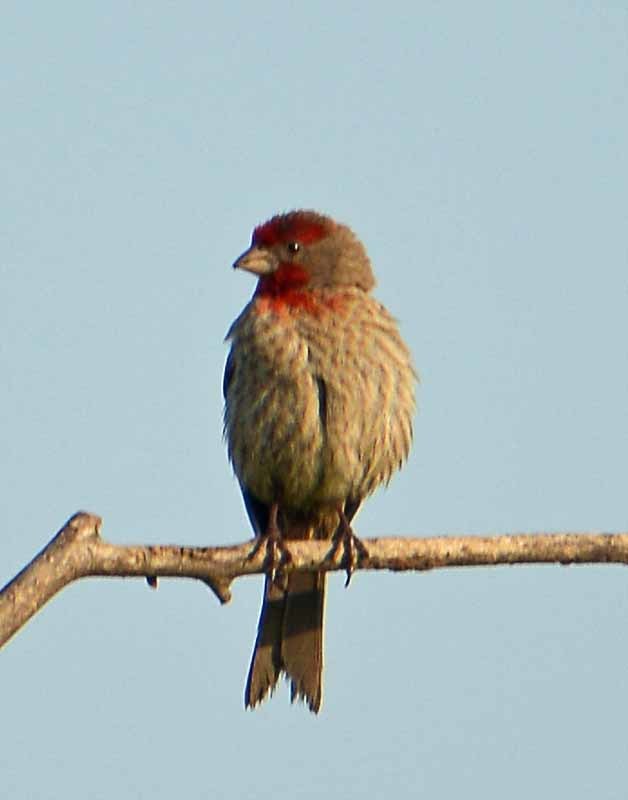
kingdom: Animalia
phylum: Chordata
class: Aves
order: Passeriformes
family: Fringillidae
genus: Haemorhous
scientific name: Haemorhous mexicanus
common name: House finch
